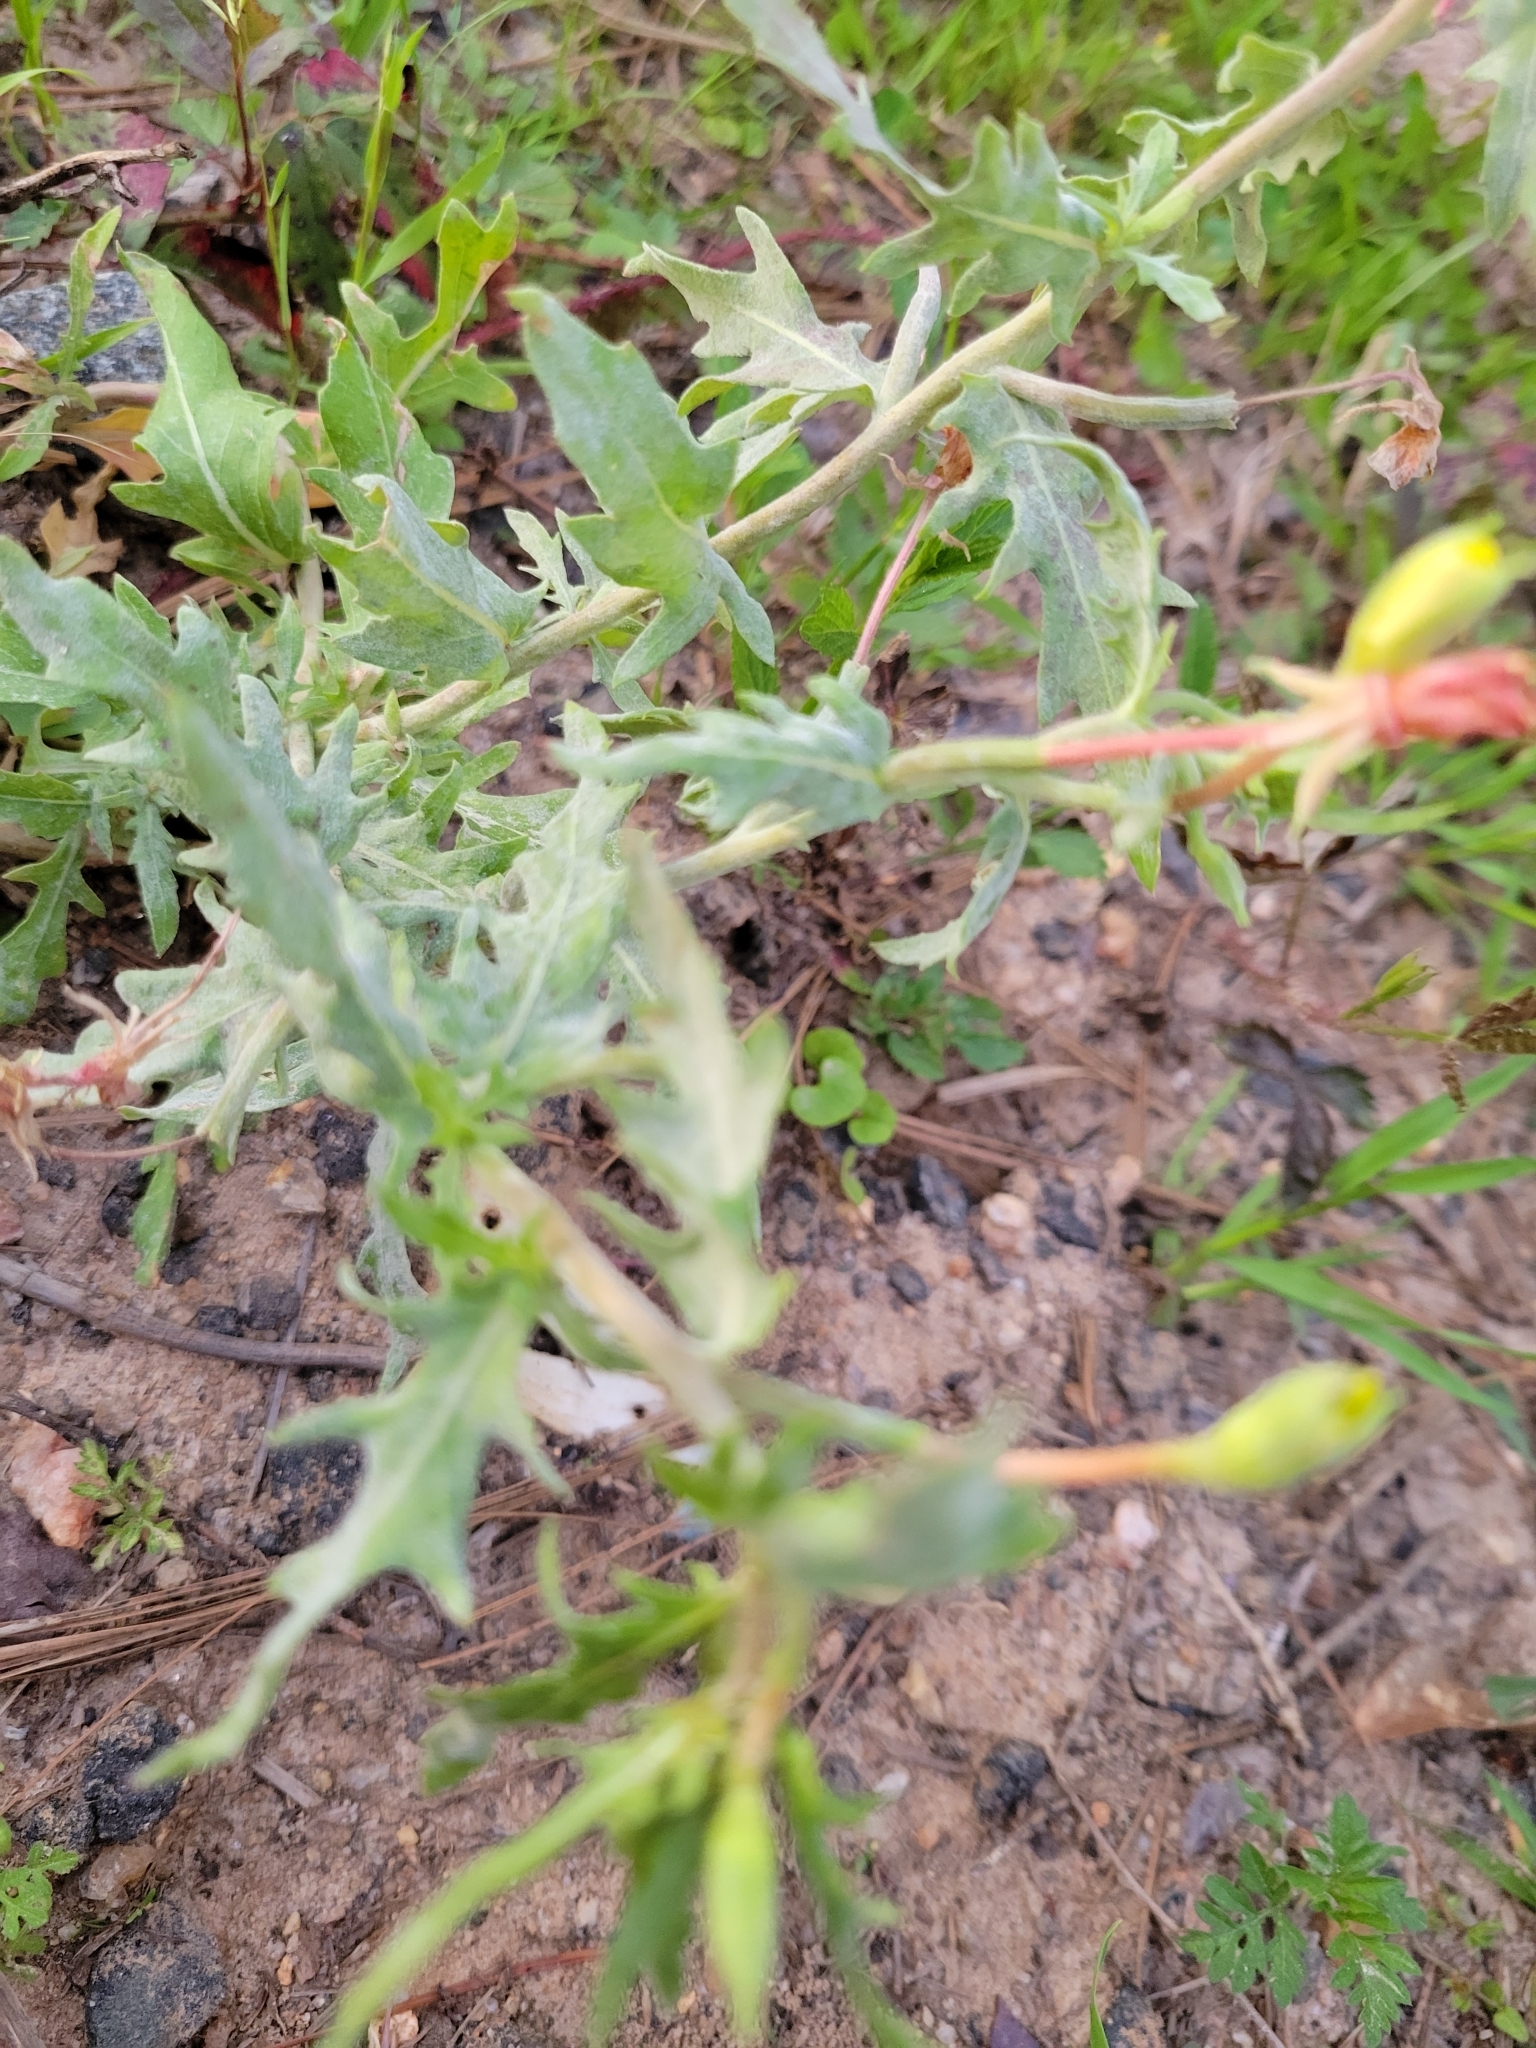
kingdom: Plantae
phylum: Tracheophyta
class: Magnoliopsida
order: Myrtales
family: Onagraceae
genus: Oenothera
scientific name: Oenothera laciniata
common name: Cut-leaved evening-primrose
